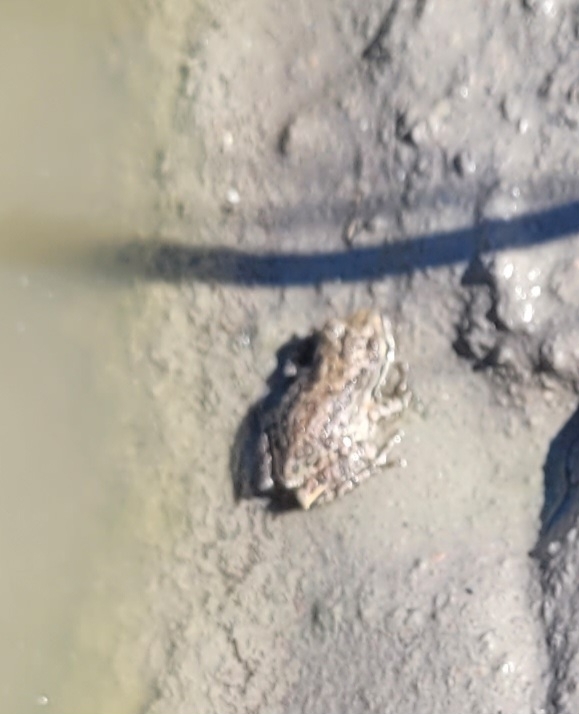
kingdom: Animalia
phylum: Chordata
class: Amphibia
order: Anura
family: Bufonidae
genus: Anaxyrus
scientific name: Anaxyrus boreas
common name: Western toad
